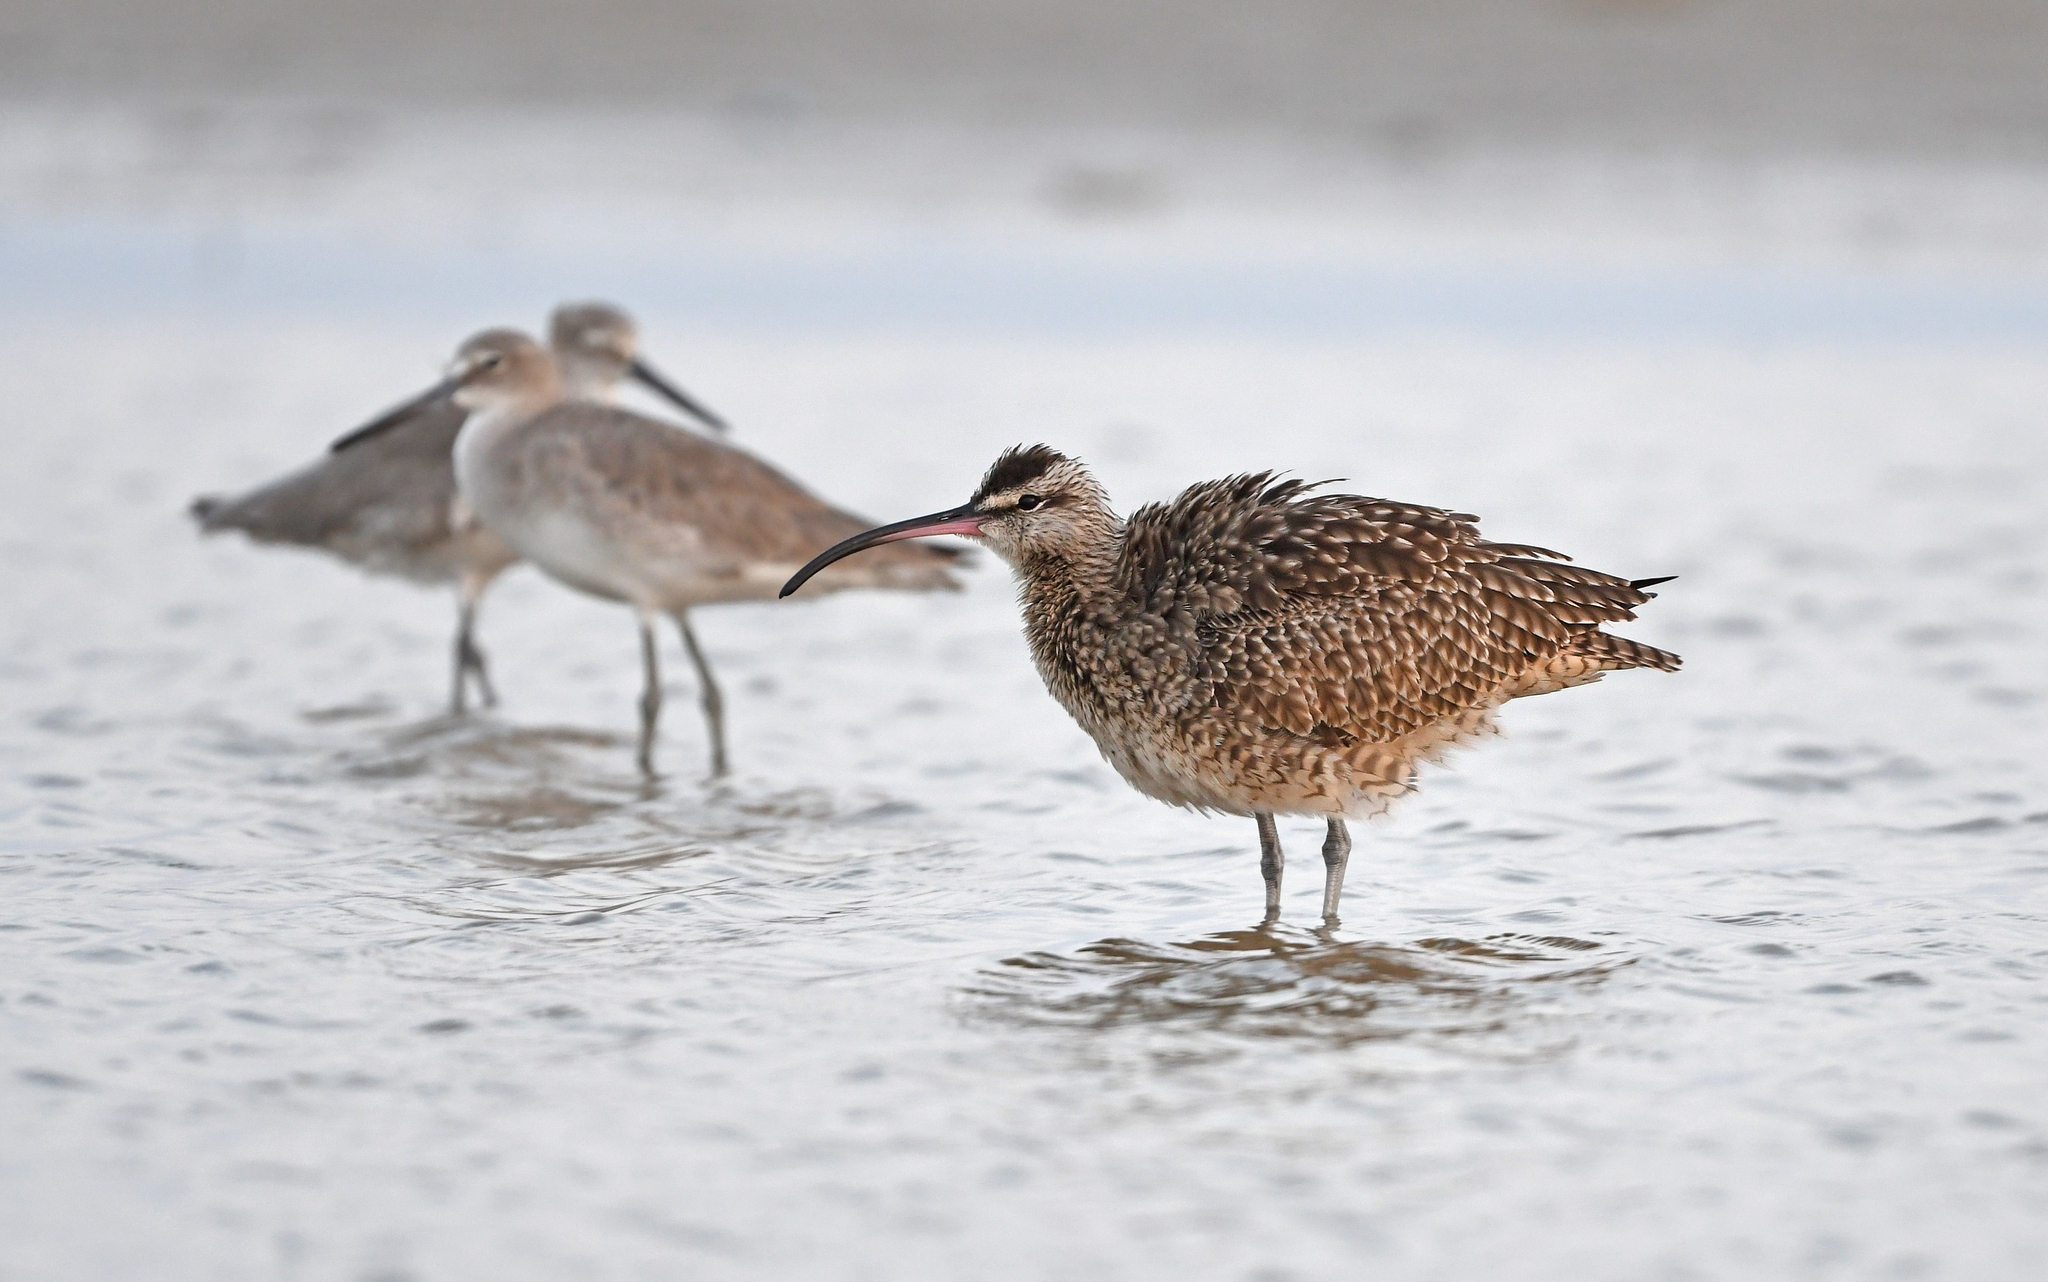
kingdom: Animalia
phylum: Chordata
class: Aves
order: Charadriiformes
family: Scolopacidae
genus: Numenius
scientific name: Numenius phaeopus
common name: Whimbrel
